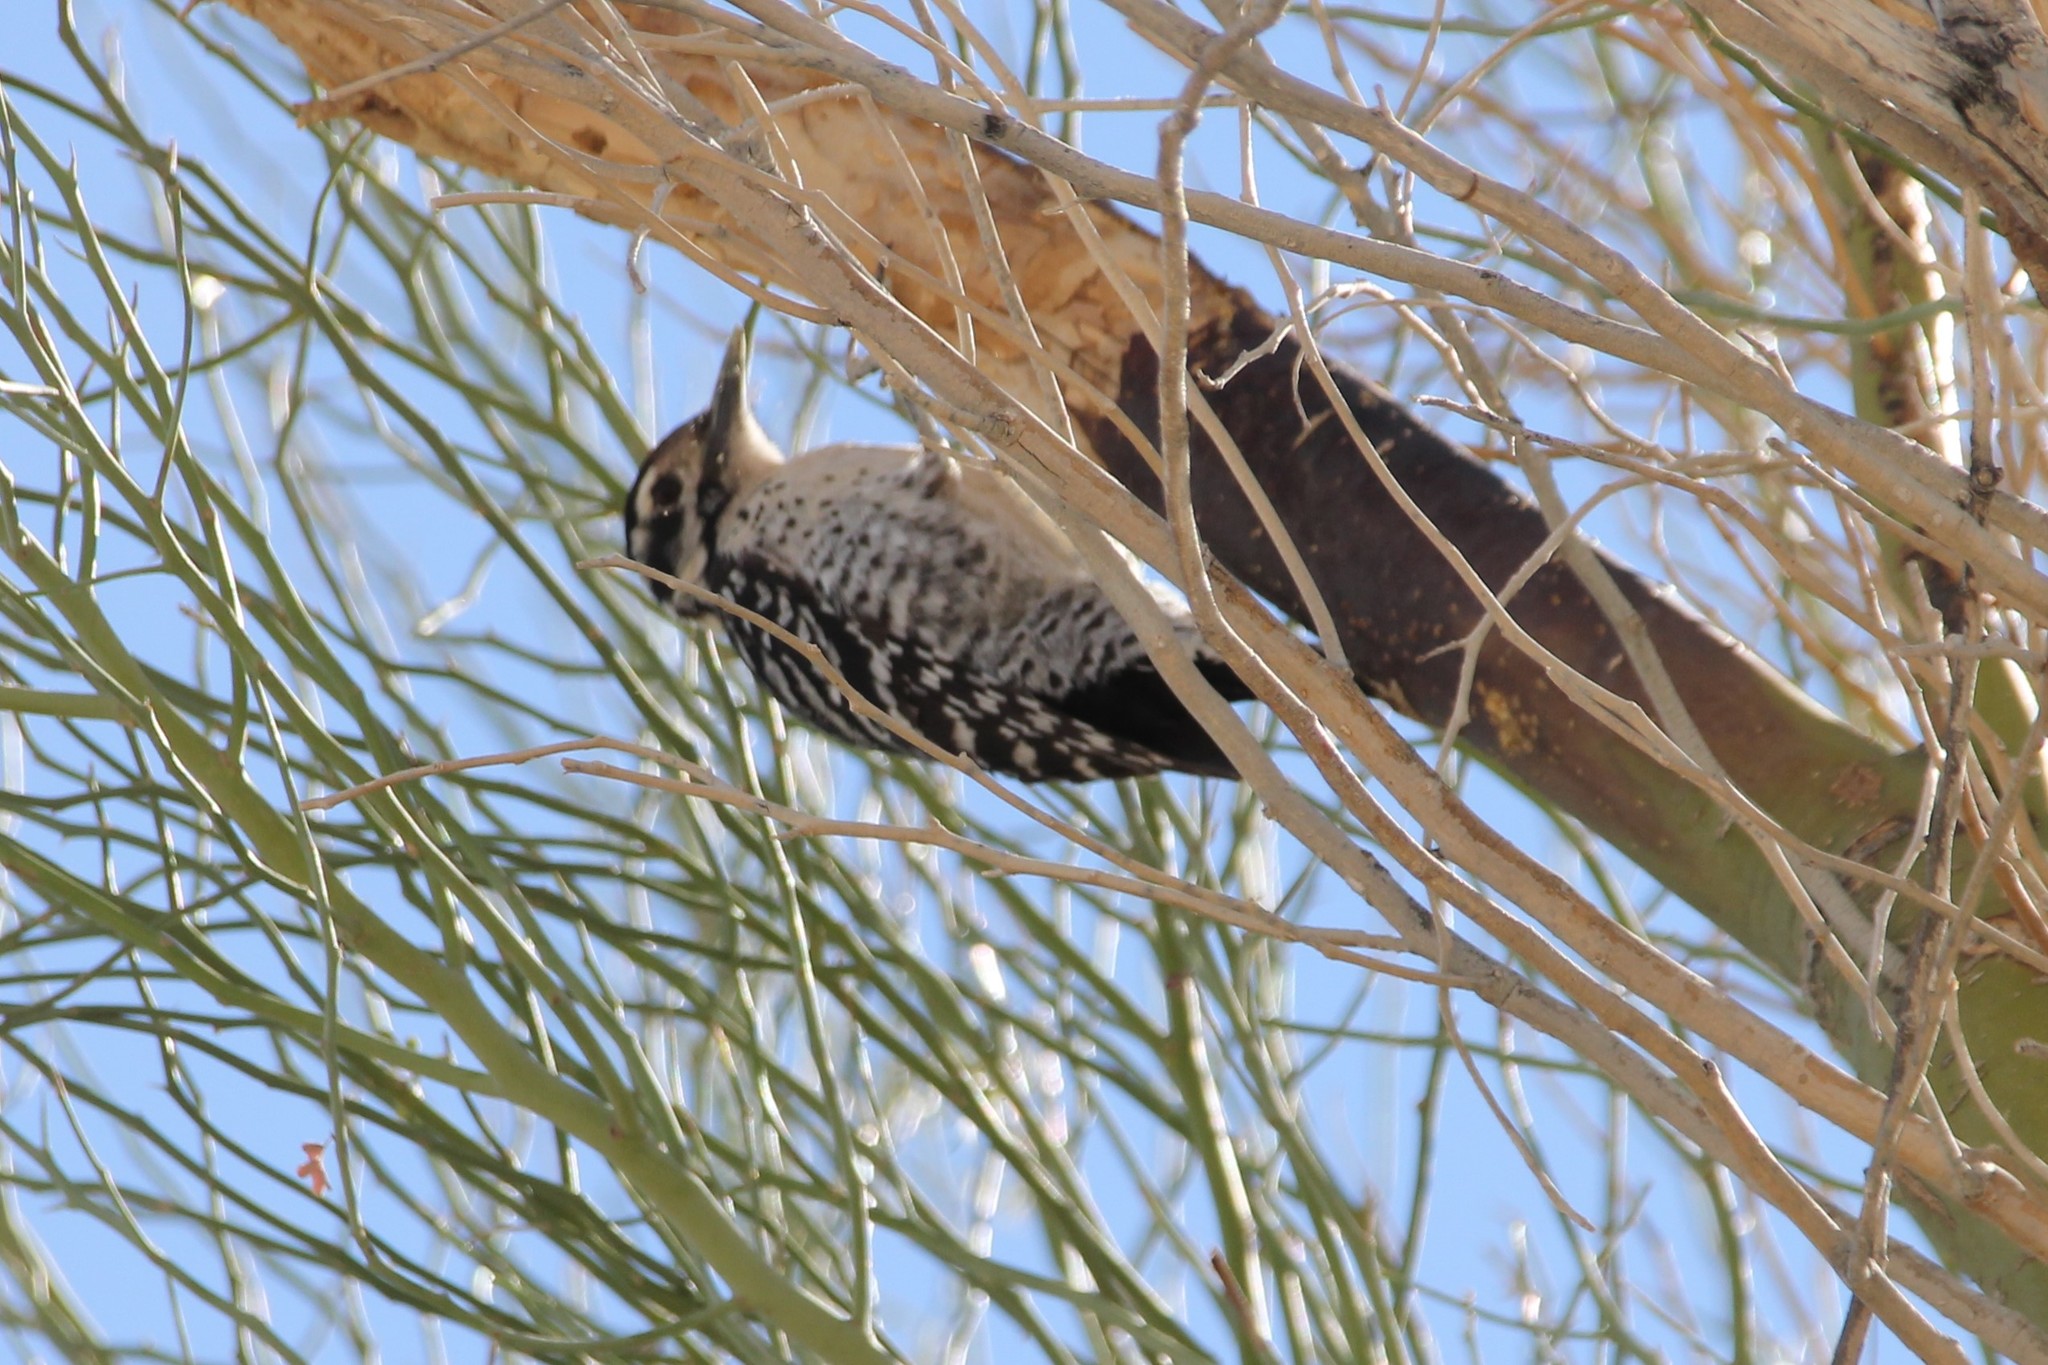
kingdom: Animalia
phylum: Chordata
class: Aves
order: Piciformes
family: Picidae
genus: Dryobates
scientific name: Dryobates scalaris
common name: Ladder-backed woodpecker
